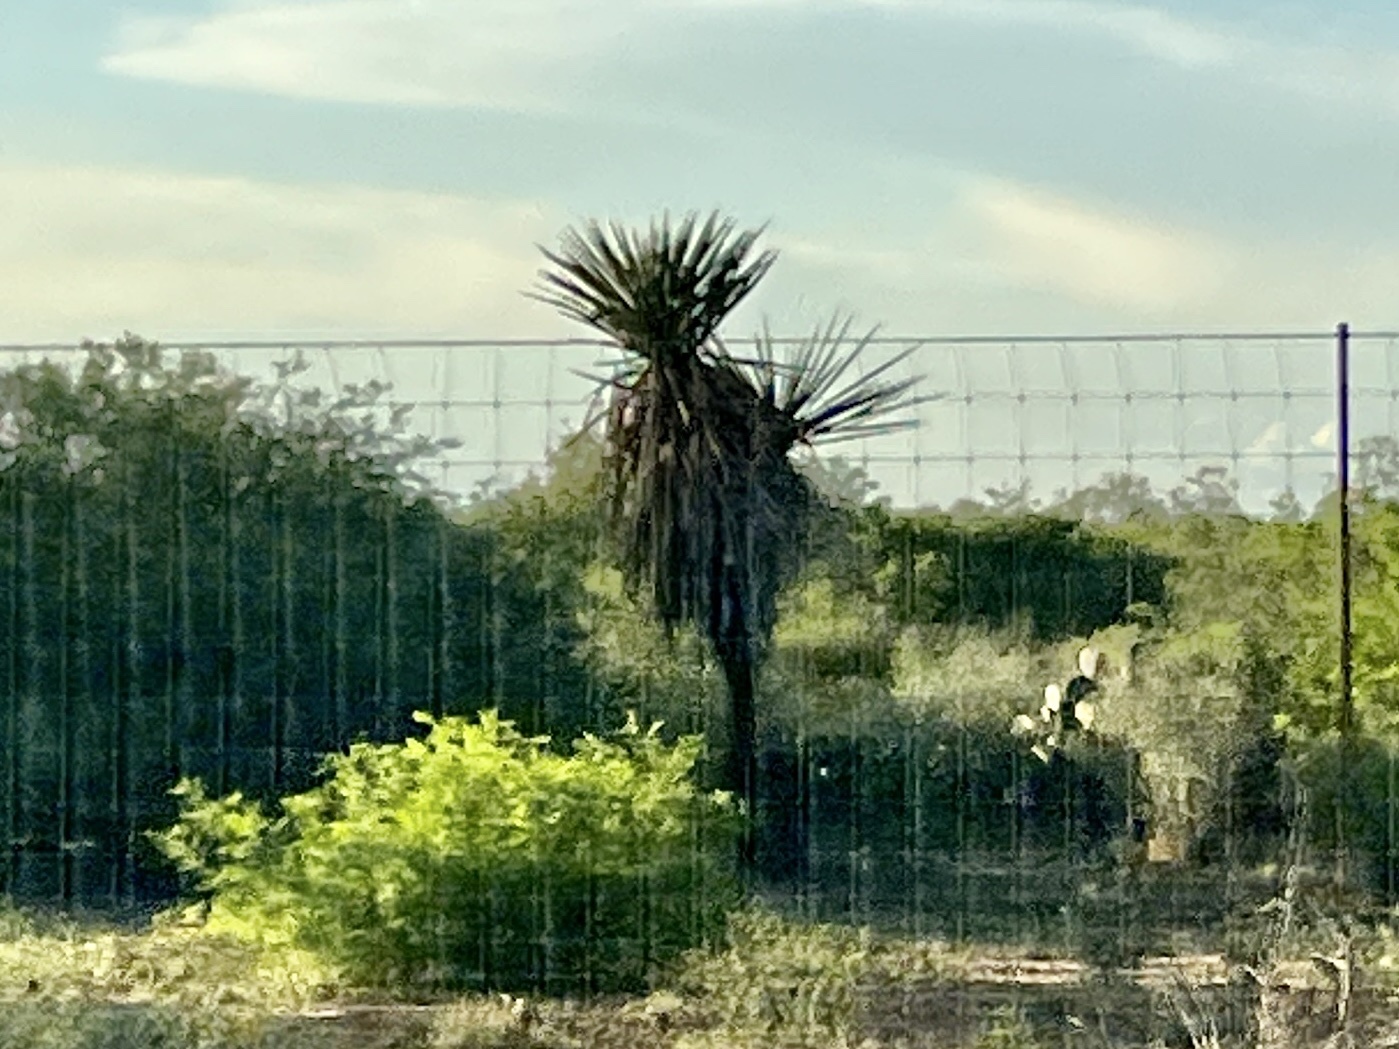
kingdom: Plantae
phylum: Tracheophyta
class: Liliopsida
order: Asparagales
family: Asparagaceae
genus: Yucca
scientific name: Yucca treculiana
